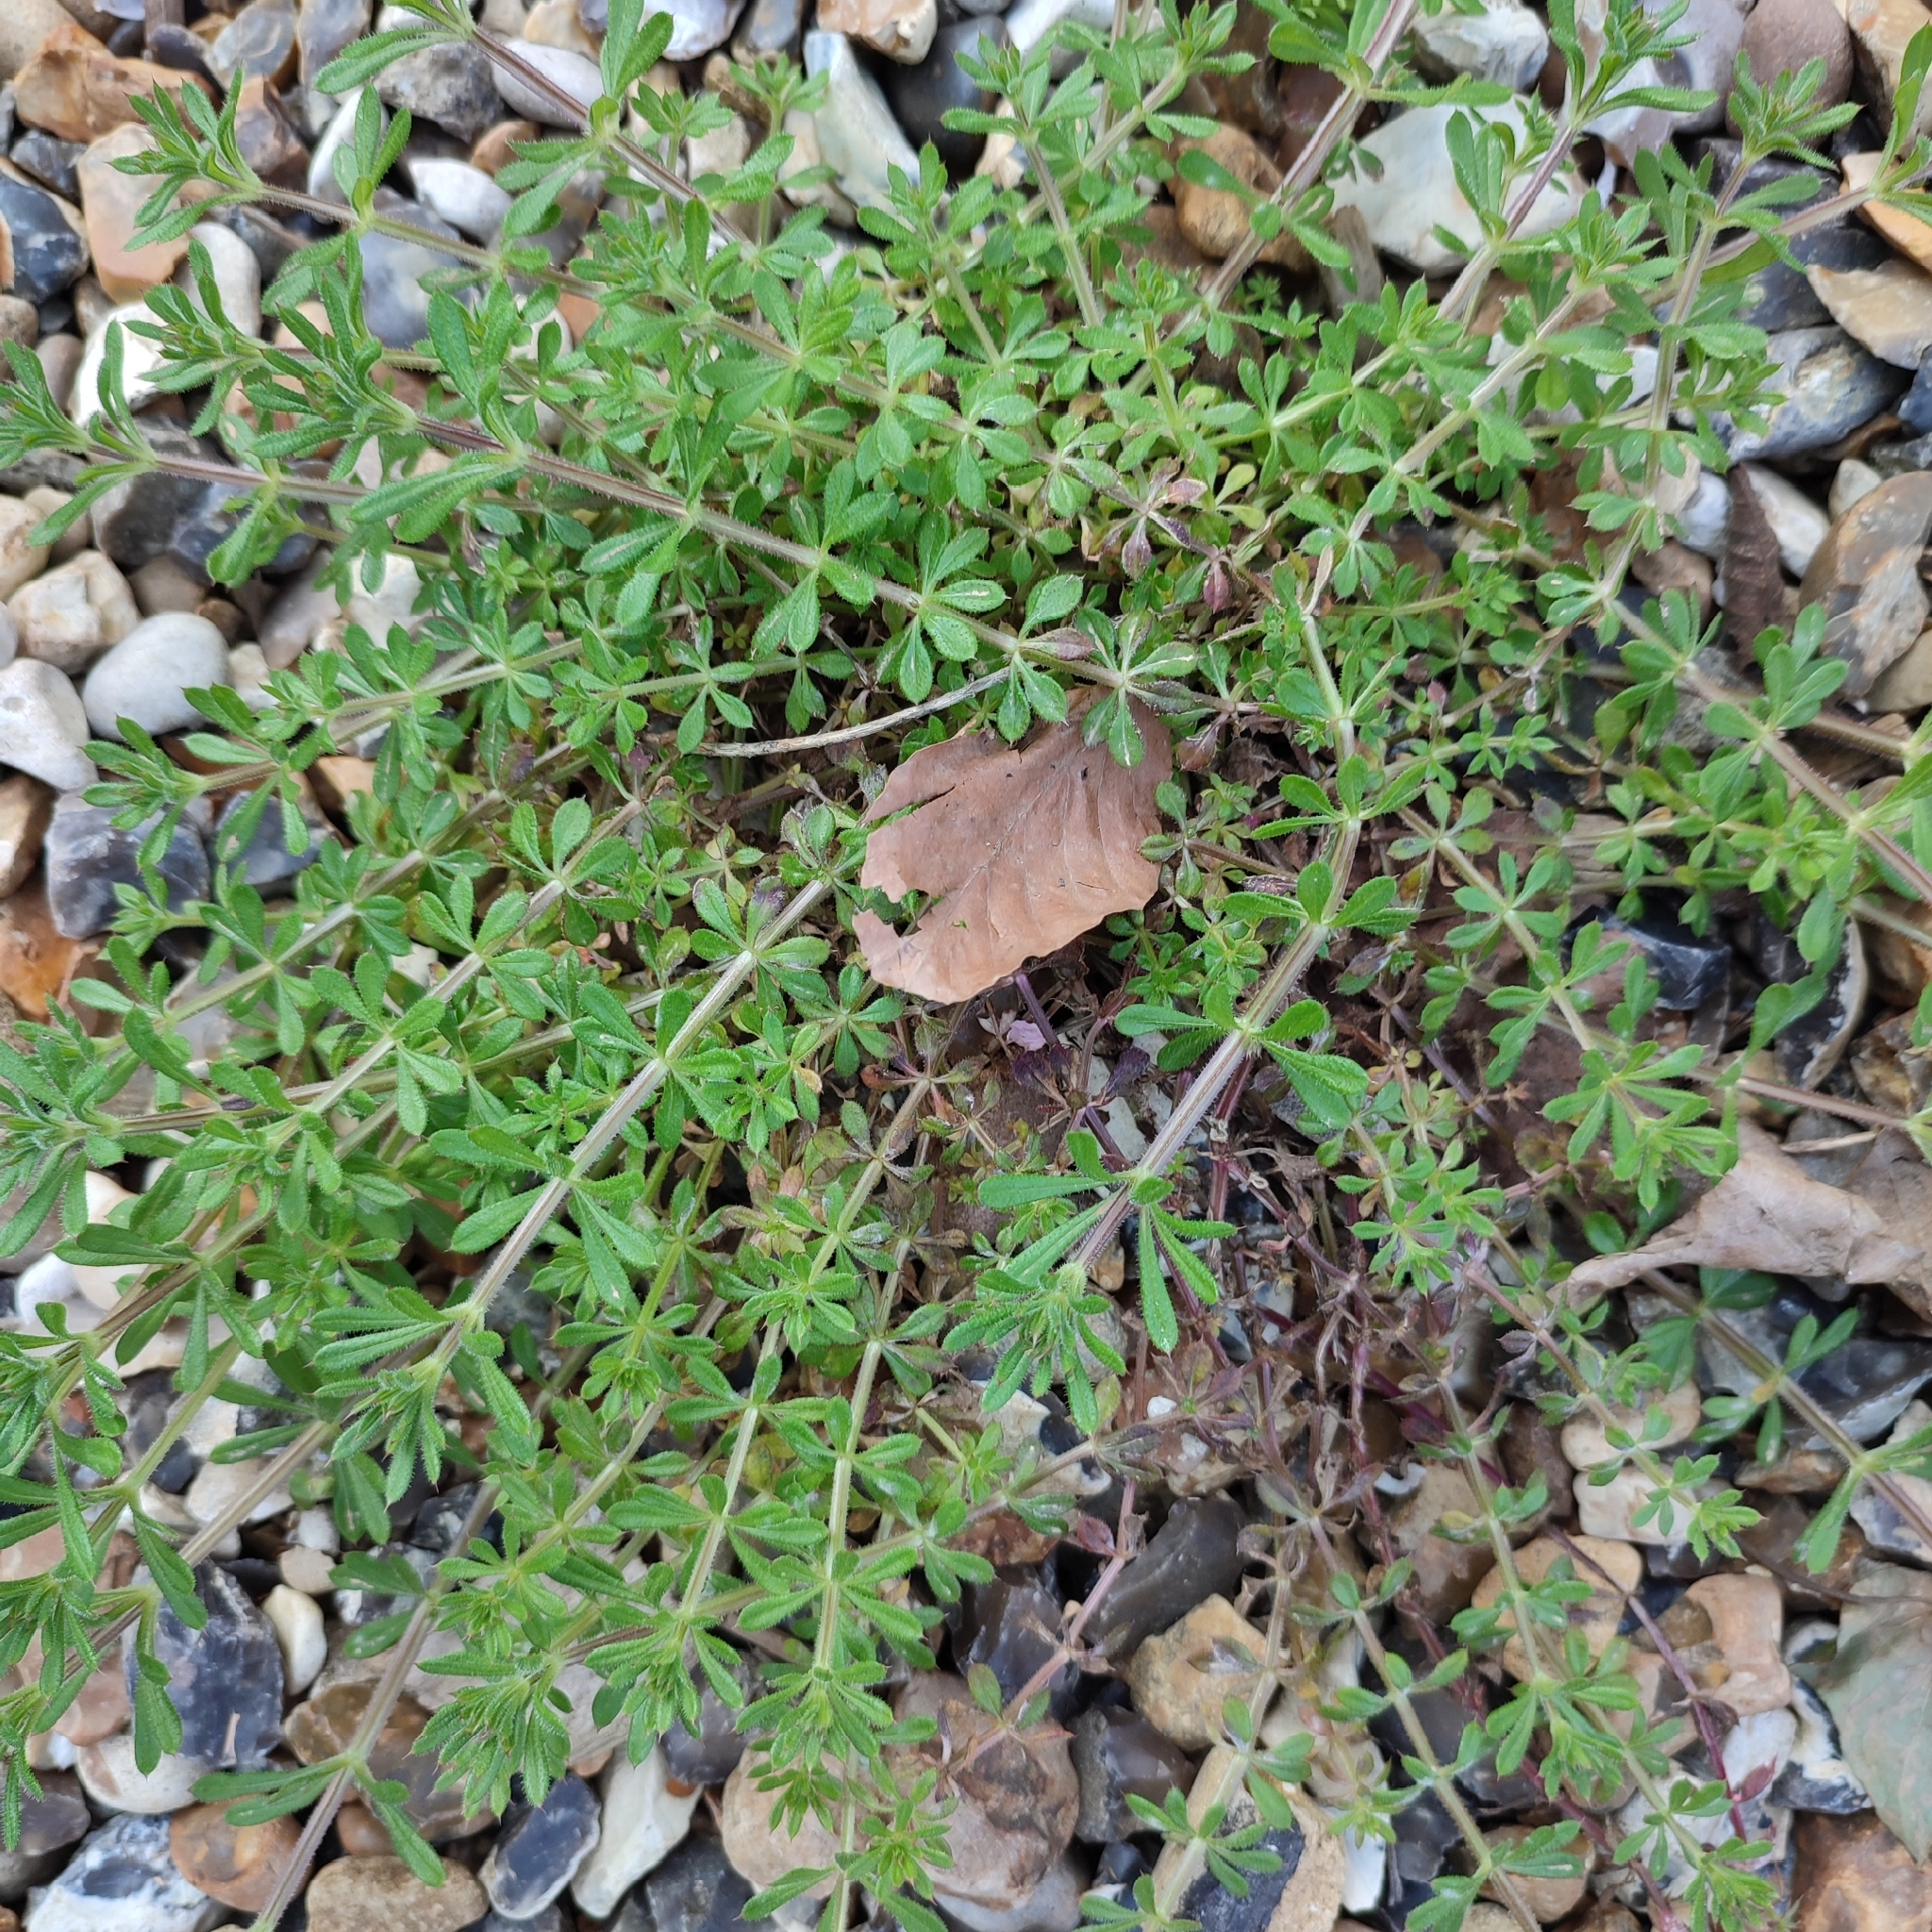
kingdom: Plantae
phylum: Tracheophyta
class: Magnoliopsida
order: Gentianales
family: Rubiaceae
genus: Galium
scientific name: Galium aparine
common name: Cleavers
